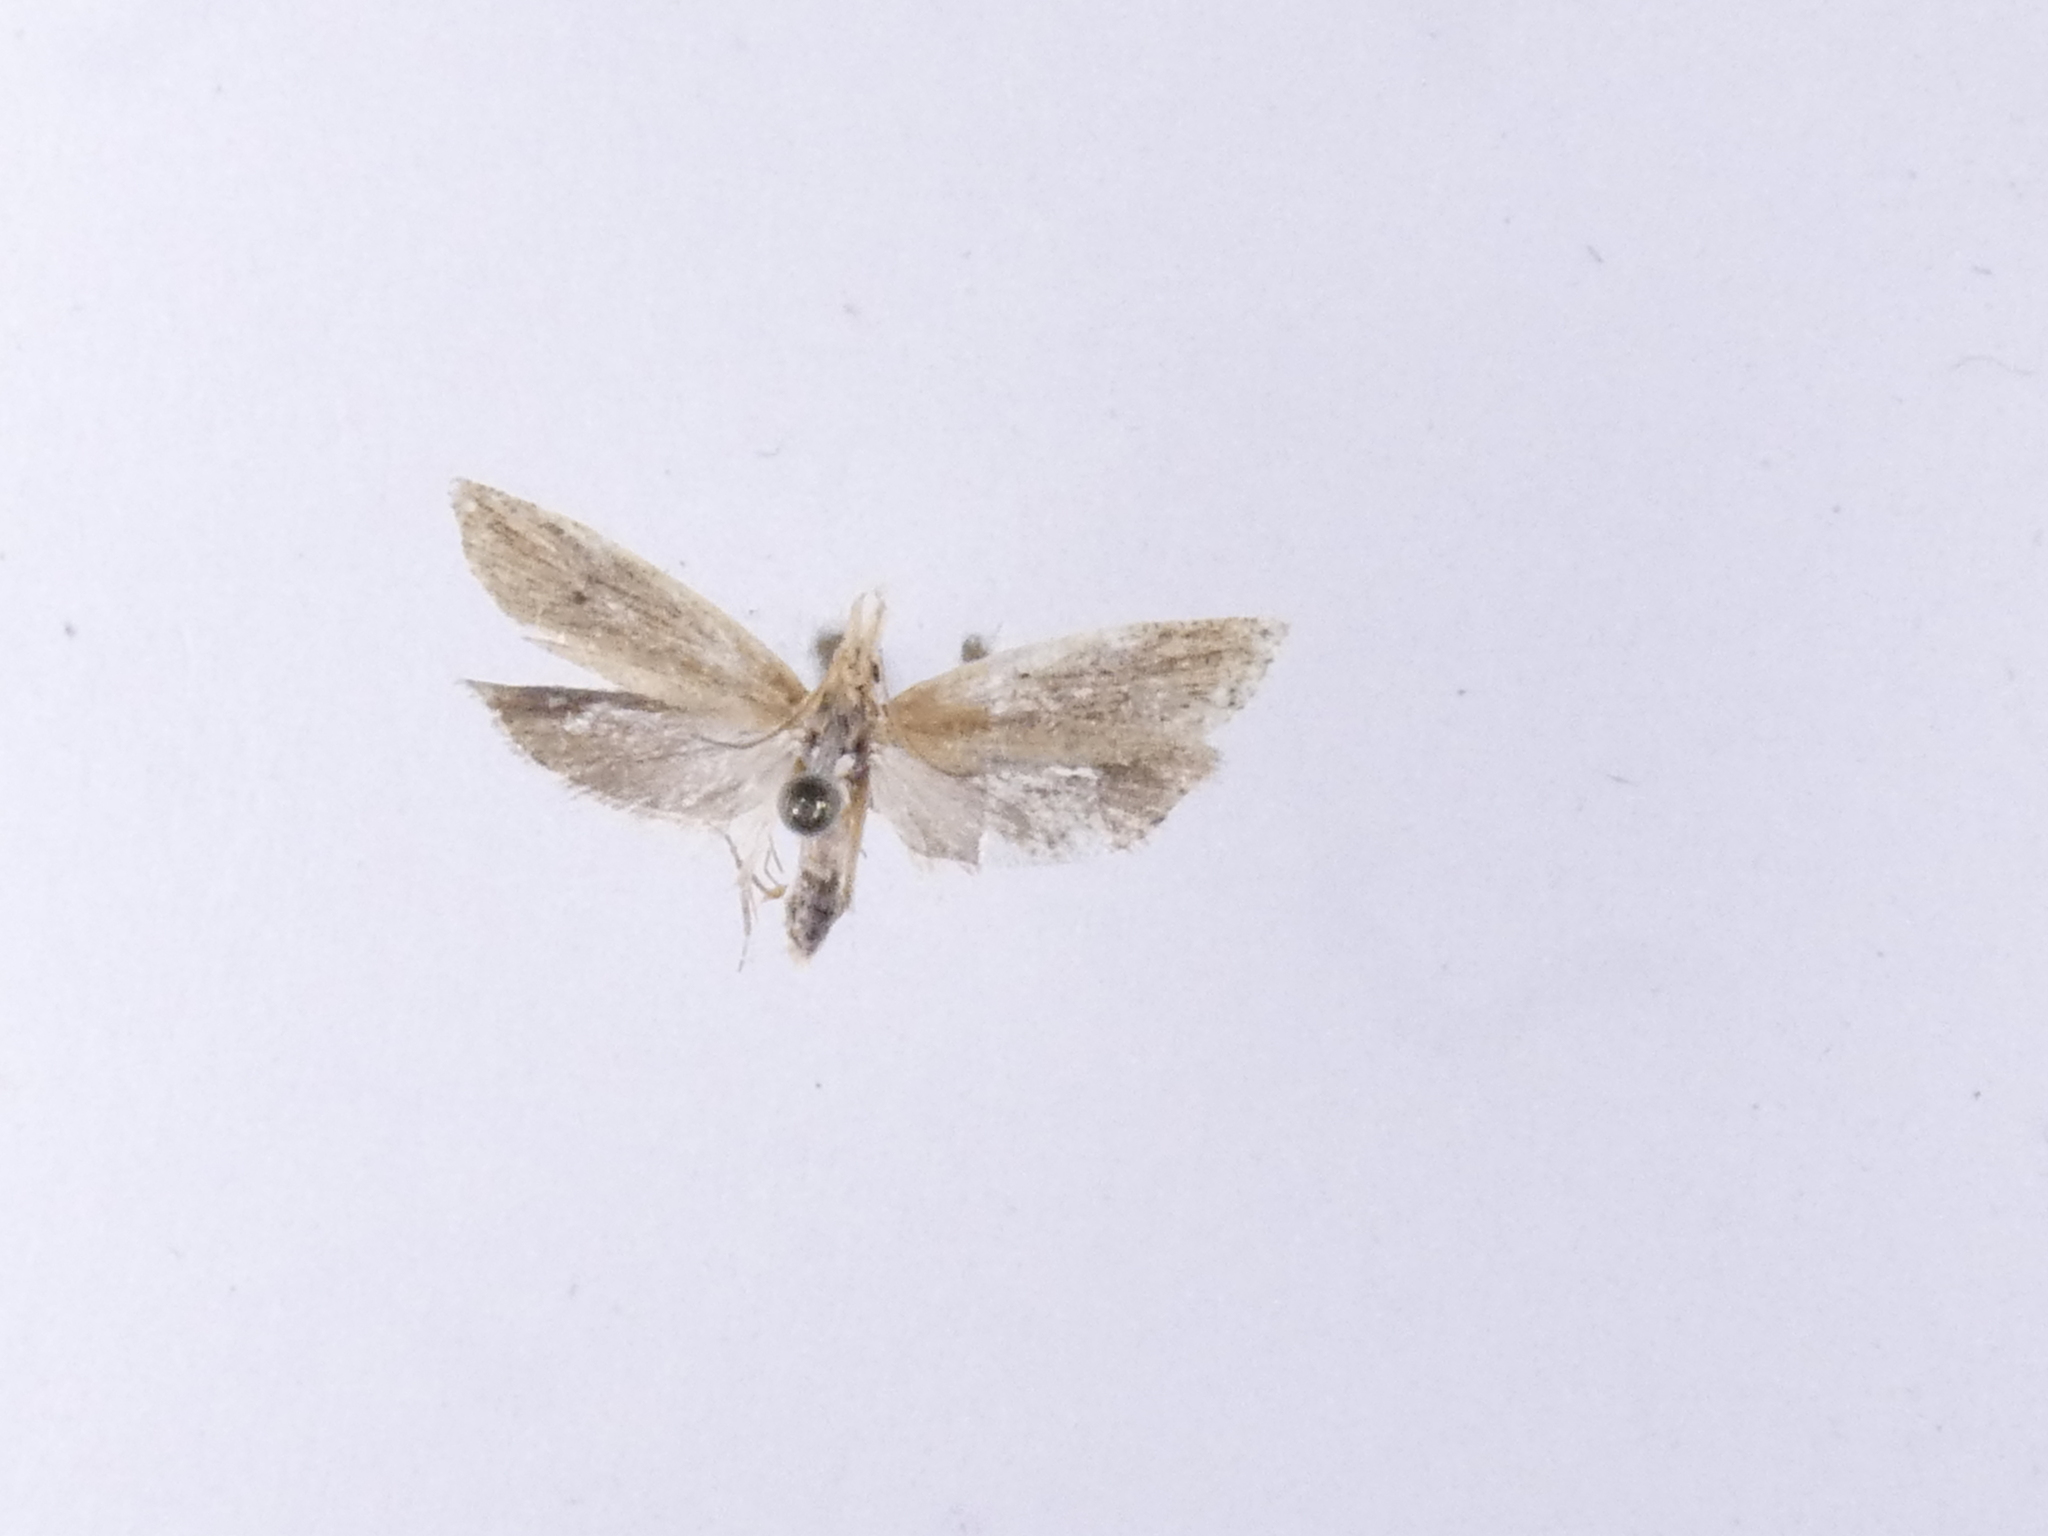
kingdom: Animalia
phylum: Arthropoda
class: Insecta
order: Lepidoptera
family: Tortricidae
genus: Bactra
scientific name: Bactra noteraula
